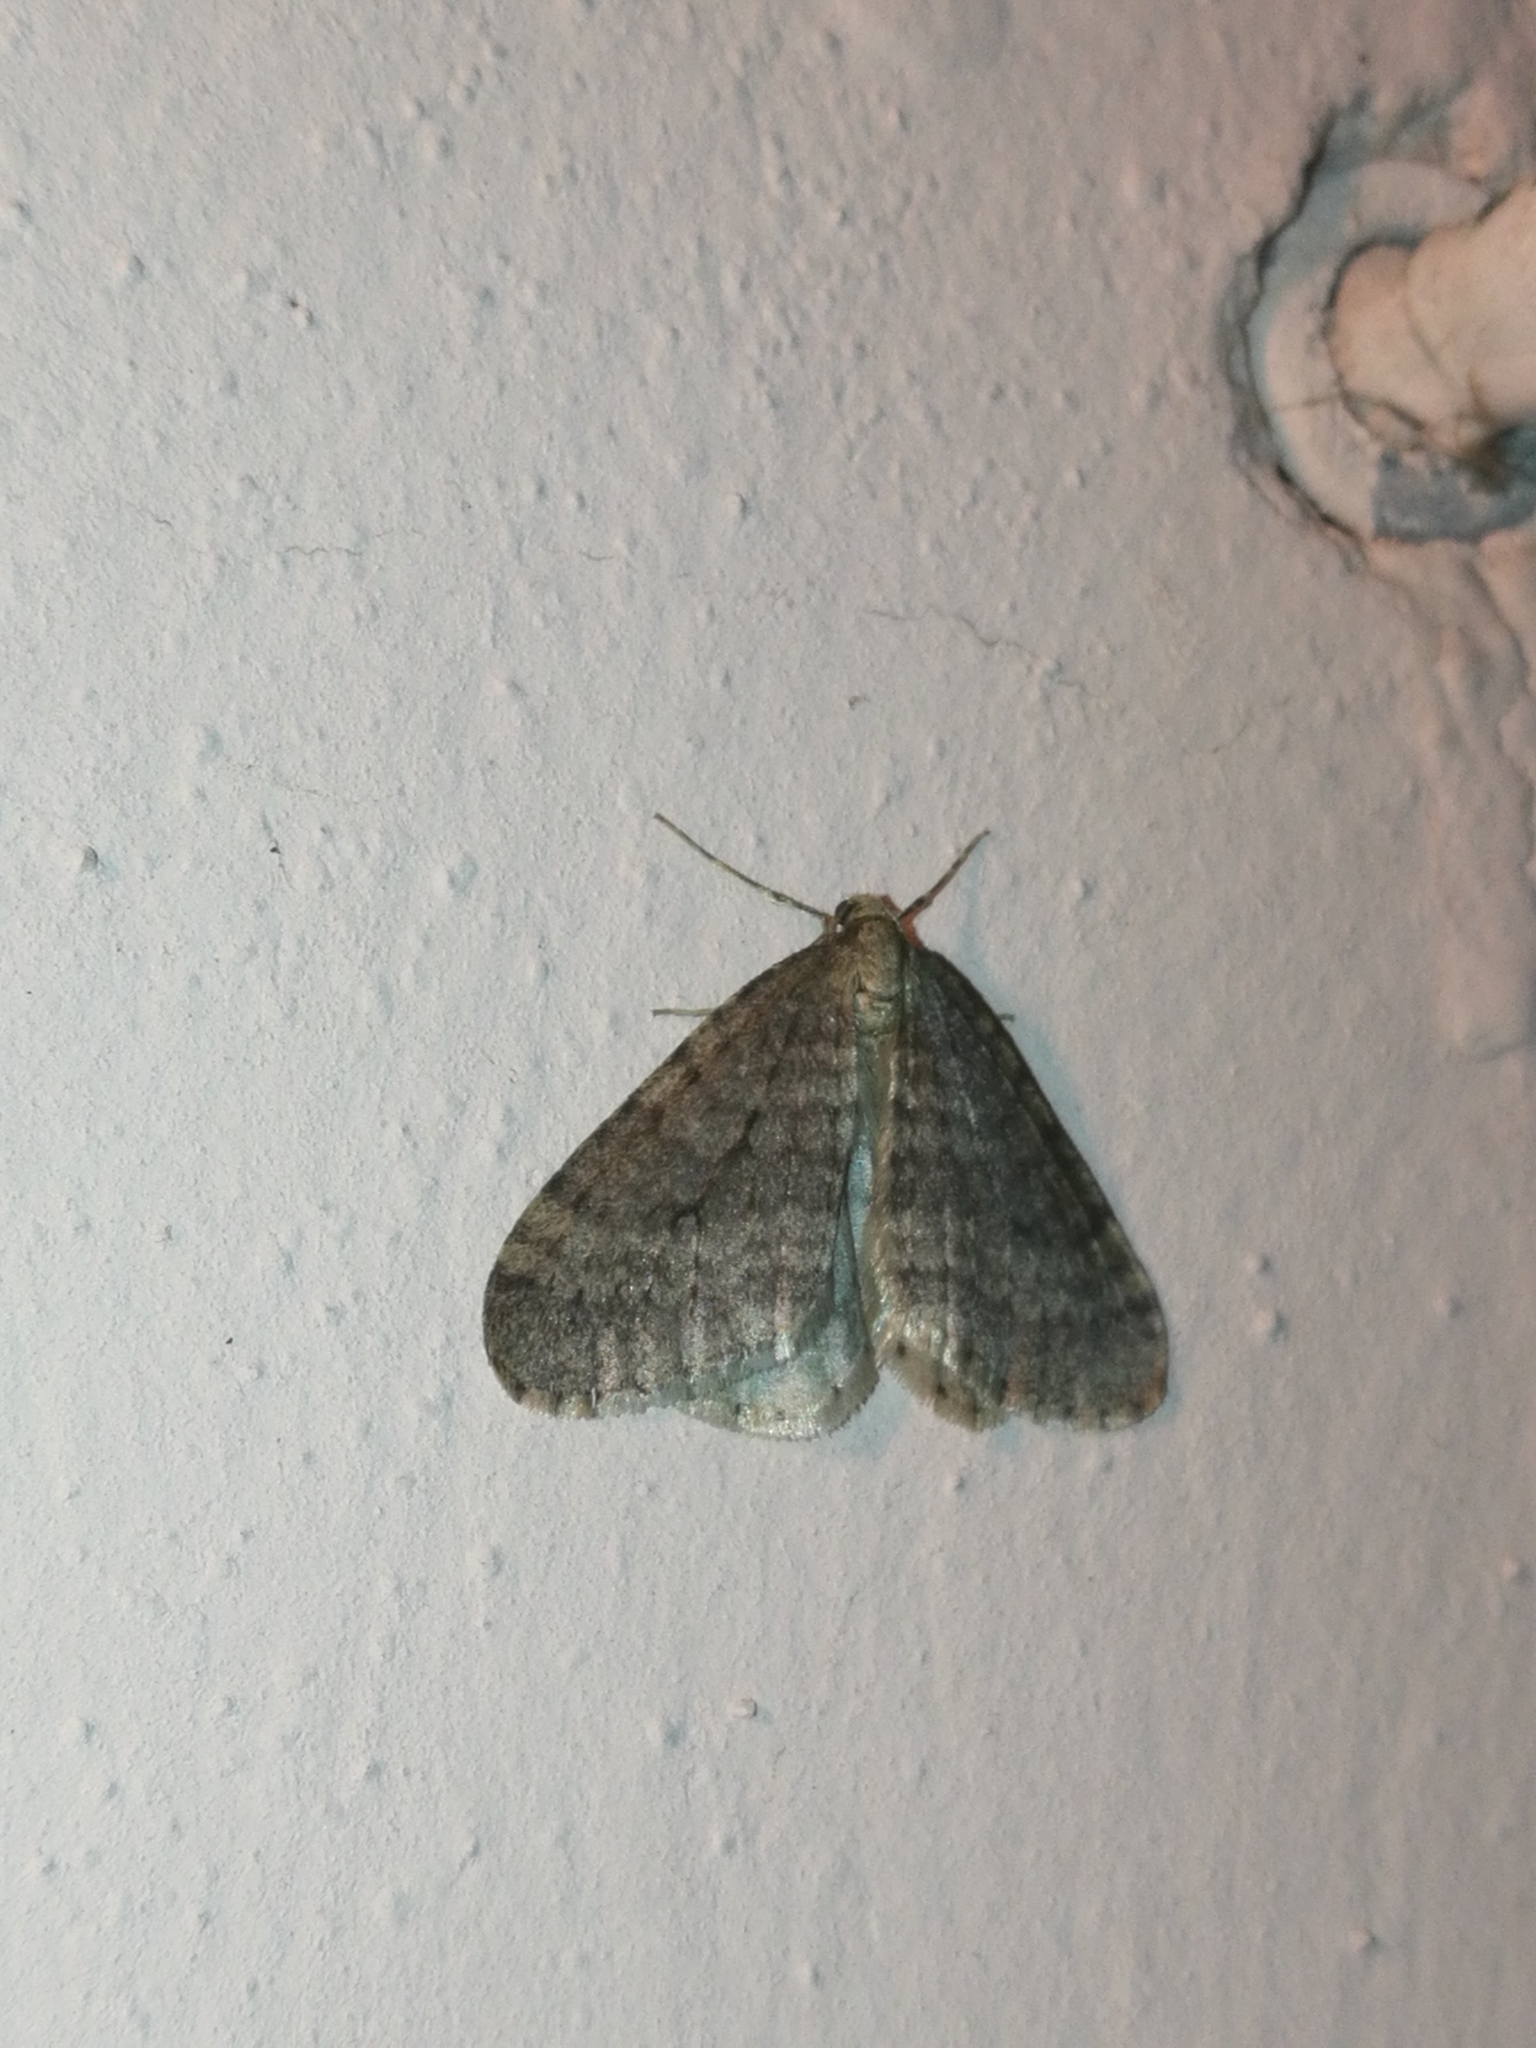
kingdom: Animalia
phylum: Arthropoda
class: Insecta
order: Lepidoptera
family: Geometridae
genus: Operophtera
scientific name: Operophtera brumata
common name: Winter moth
